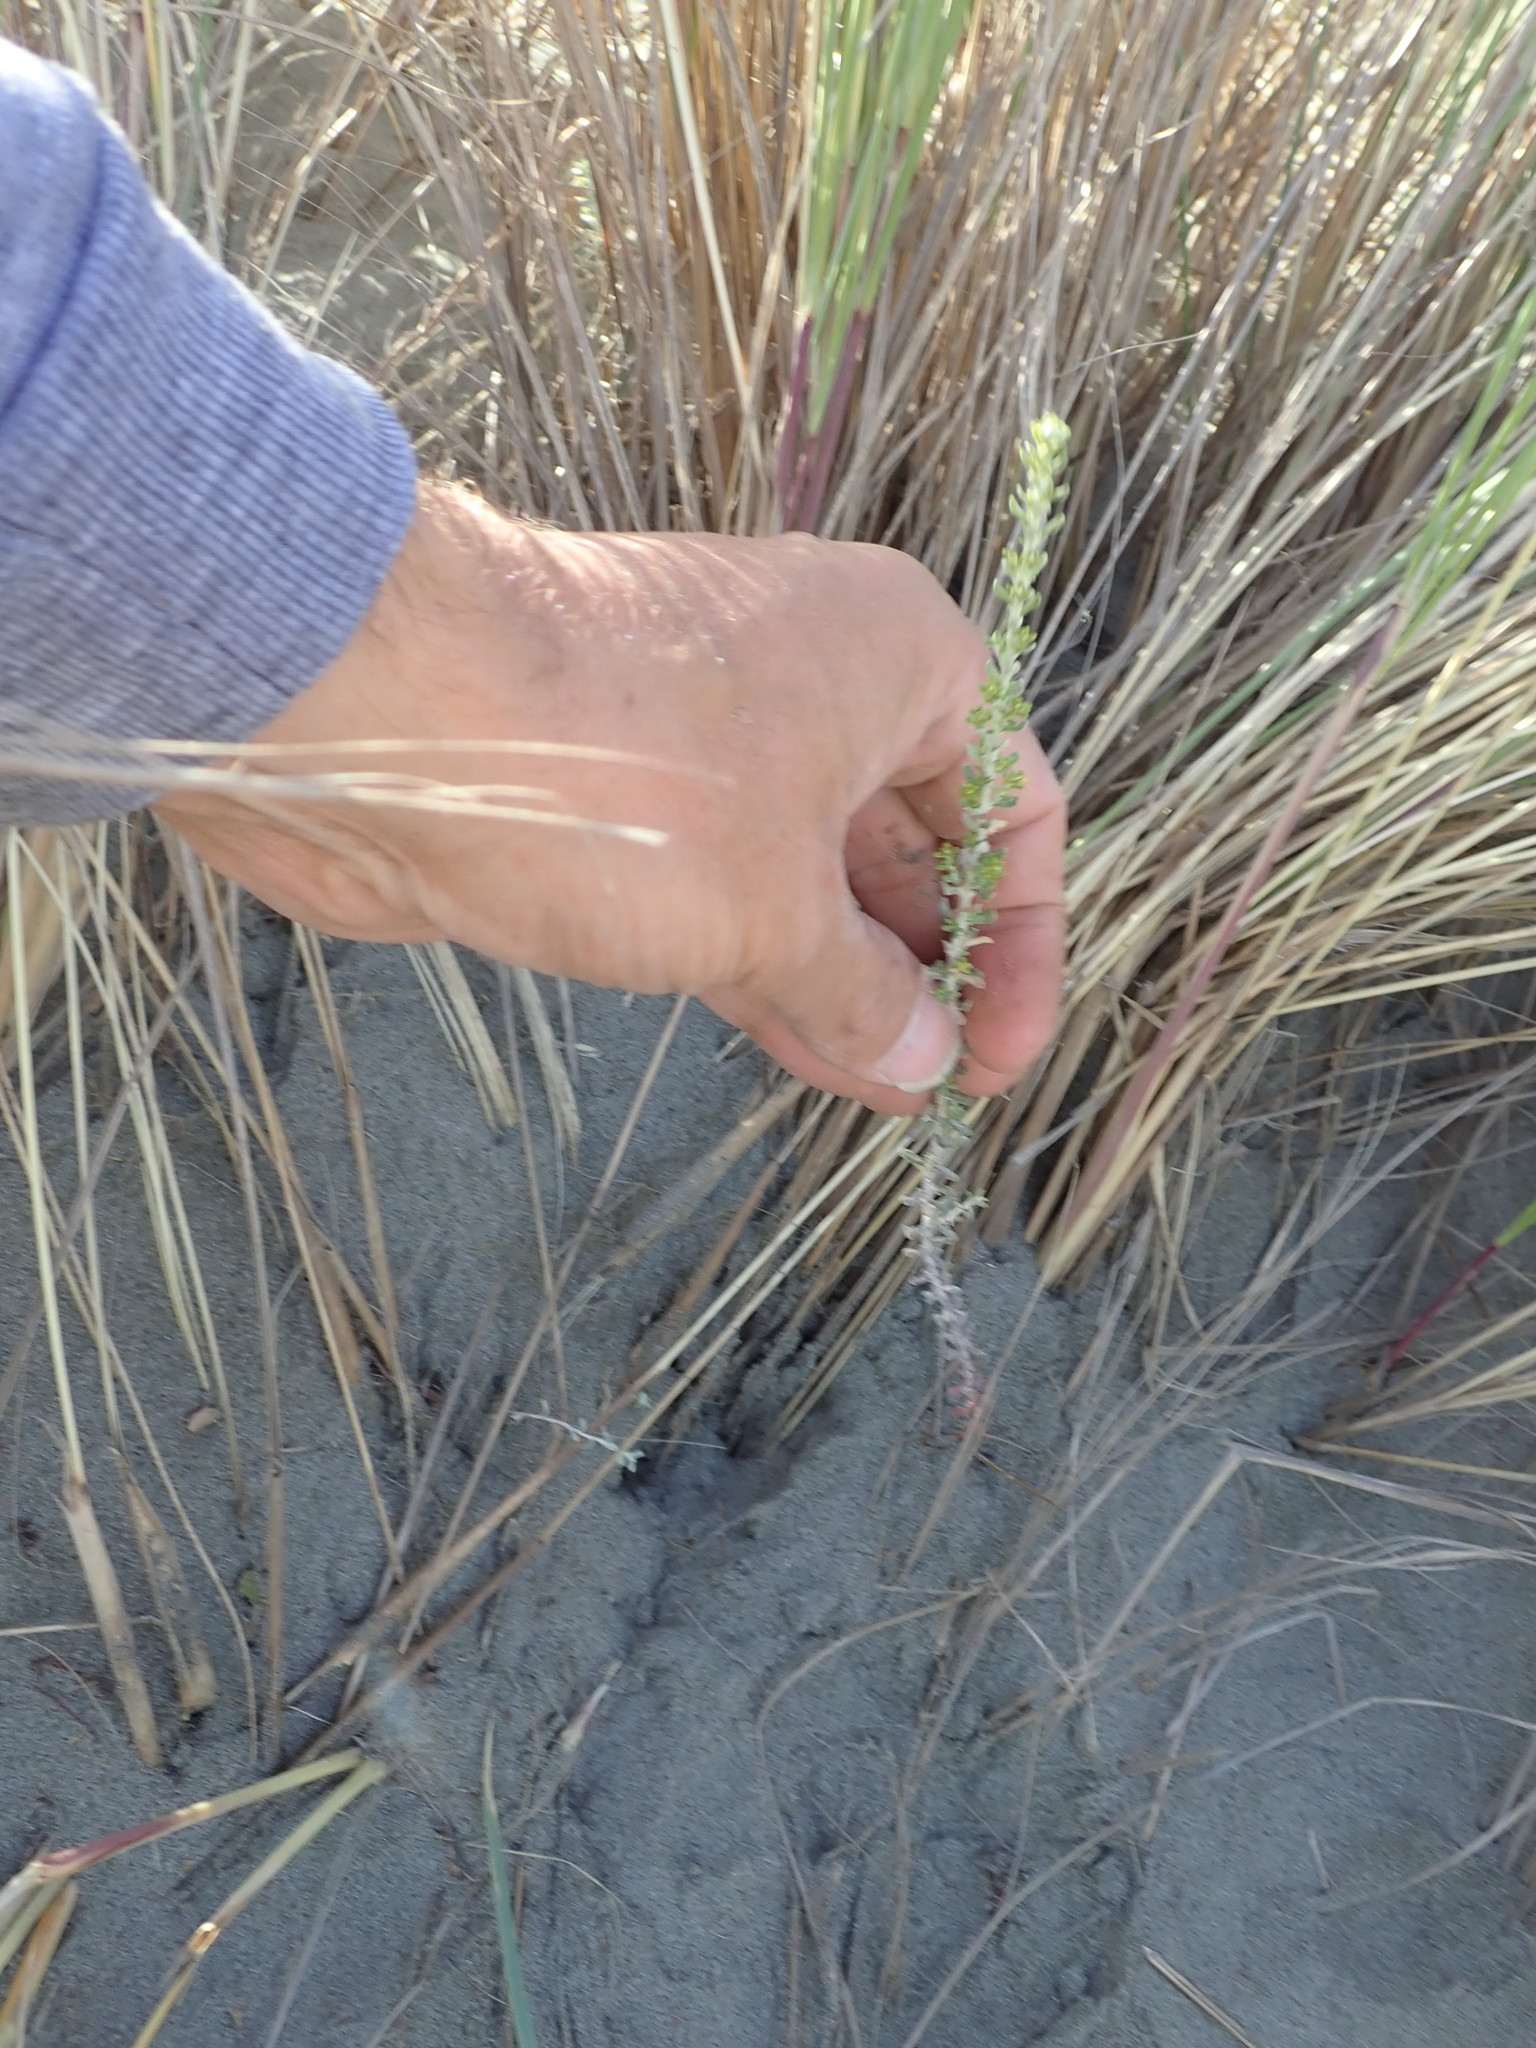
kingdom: Plantae
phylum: Tracheophyta
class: Magnoliopsida
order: Asterales
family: Asteraceae
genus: Ozothamnus
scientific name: Ozothamnus leptophyllus
